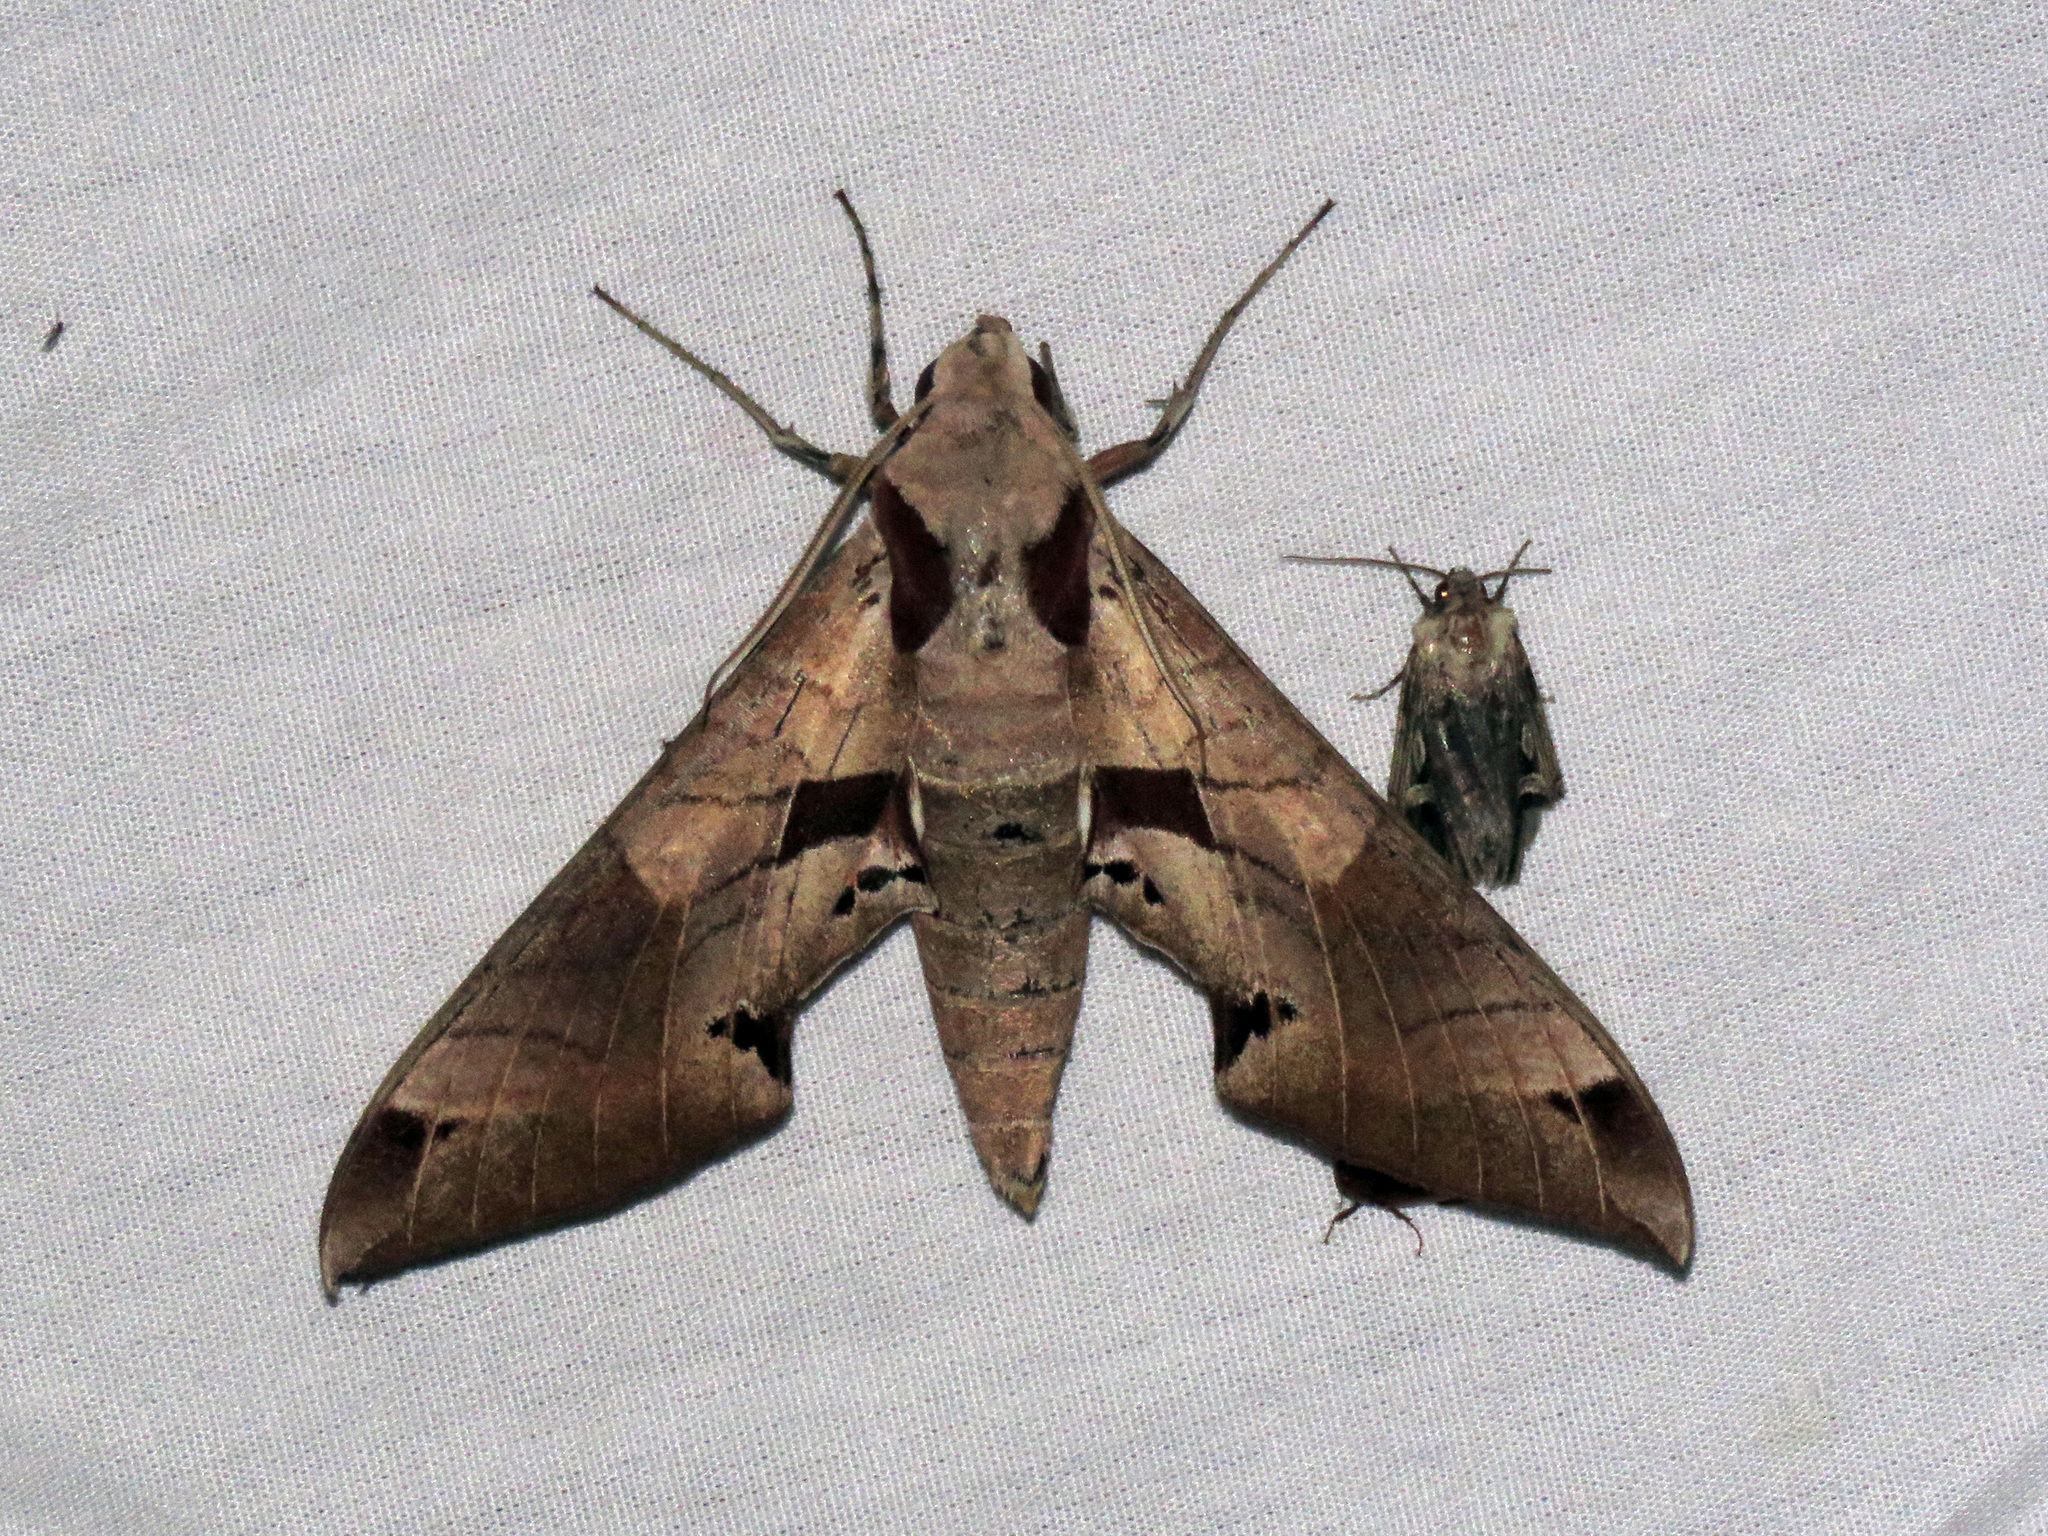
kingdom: Animalia
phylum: Arthropoda
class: Insecta
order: Lepidoptera
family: Sphingidae
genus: Eumorpha
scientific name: Eumorpha achemon
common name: Achemon sphinx
